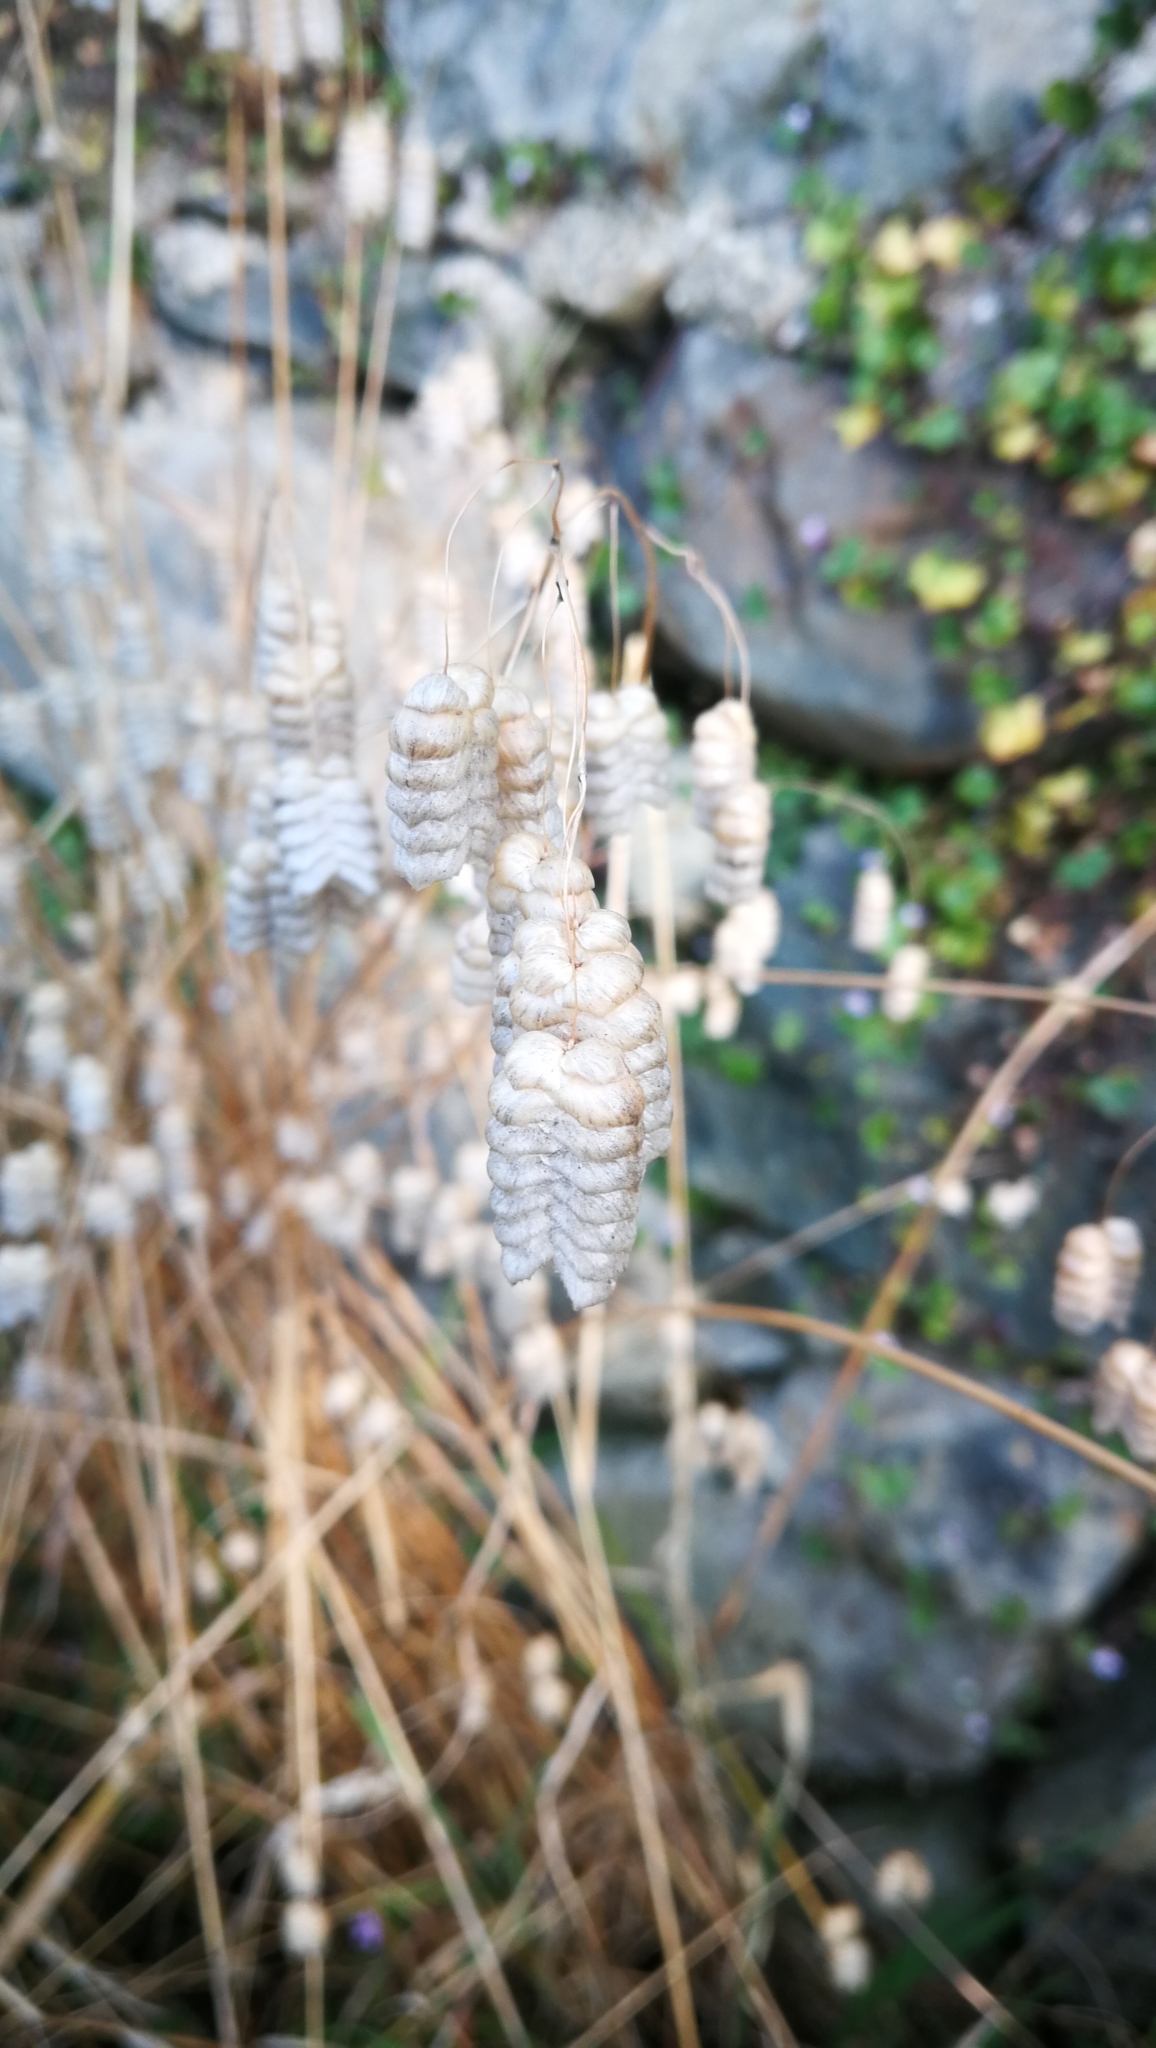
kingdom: Plantae
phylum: Tracheophyta
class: Liliopsida
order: Poales
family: Poaceae
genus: Briza
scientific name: Briza maxima
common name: Big quakinggrass
